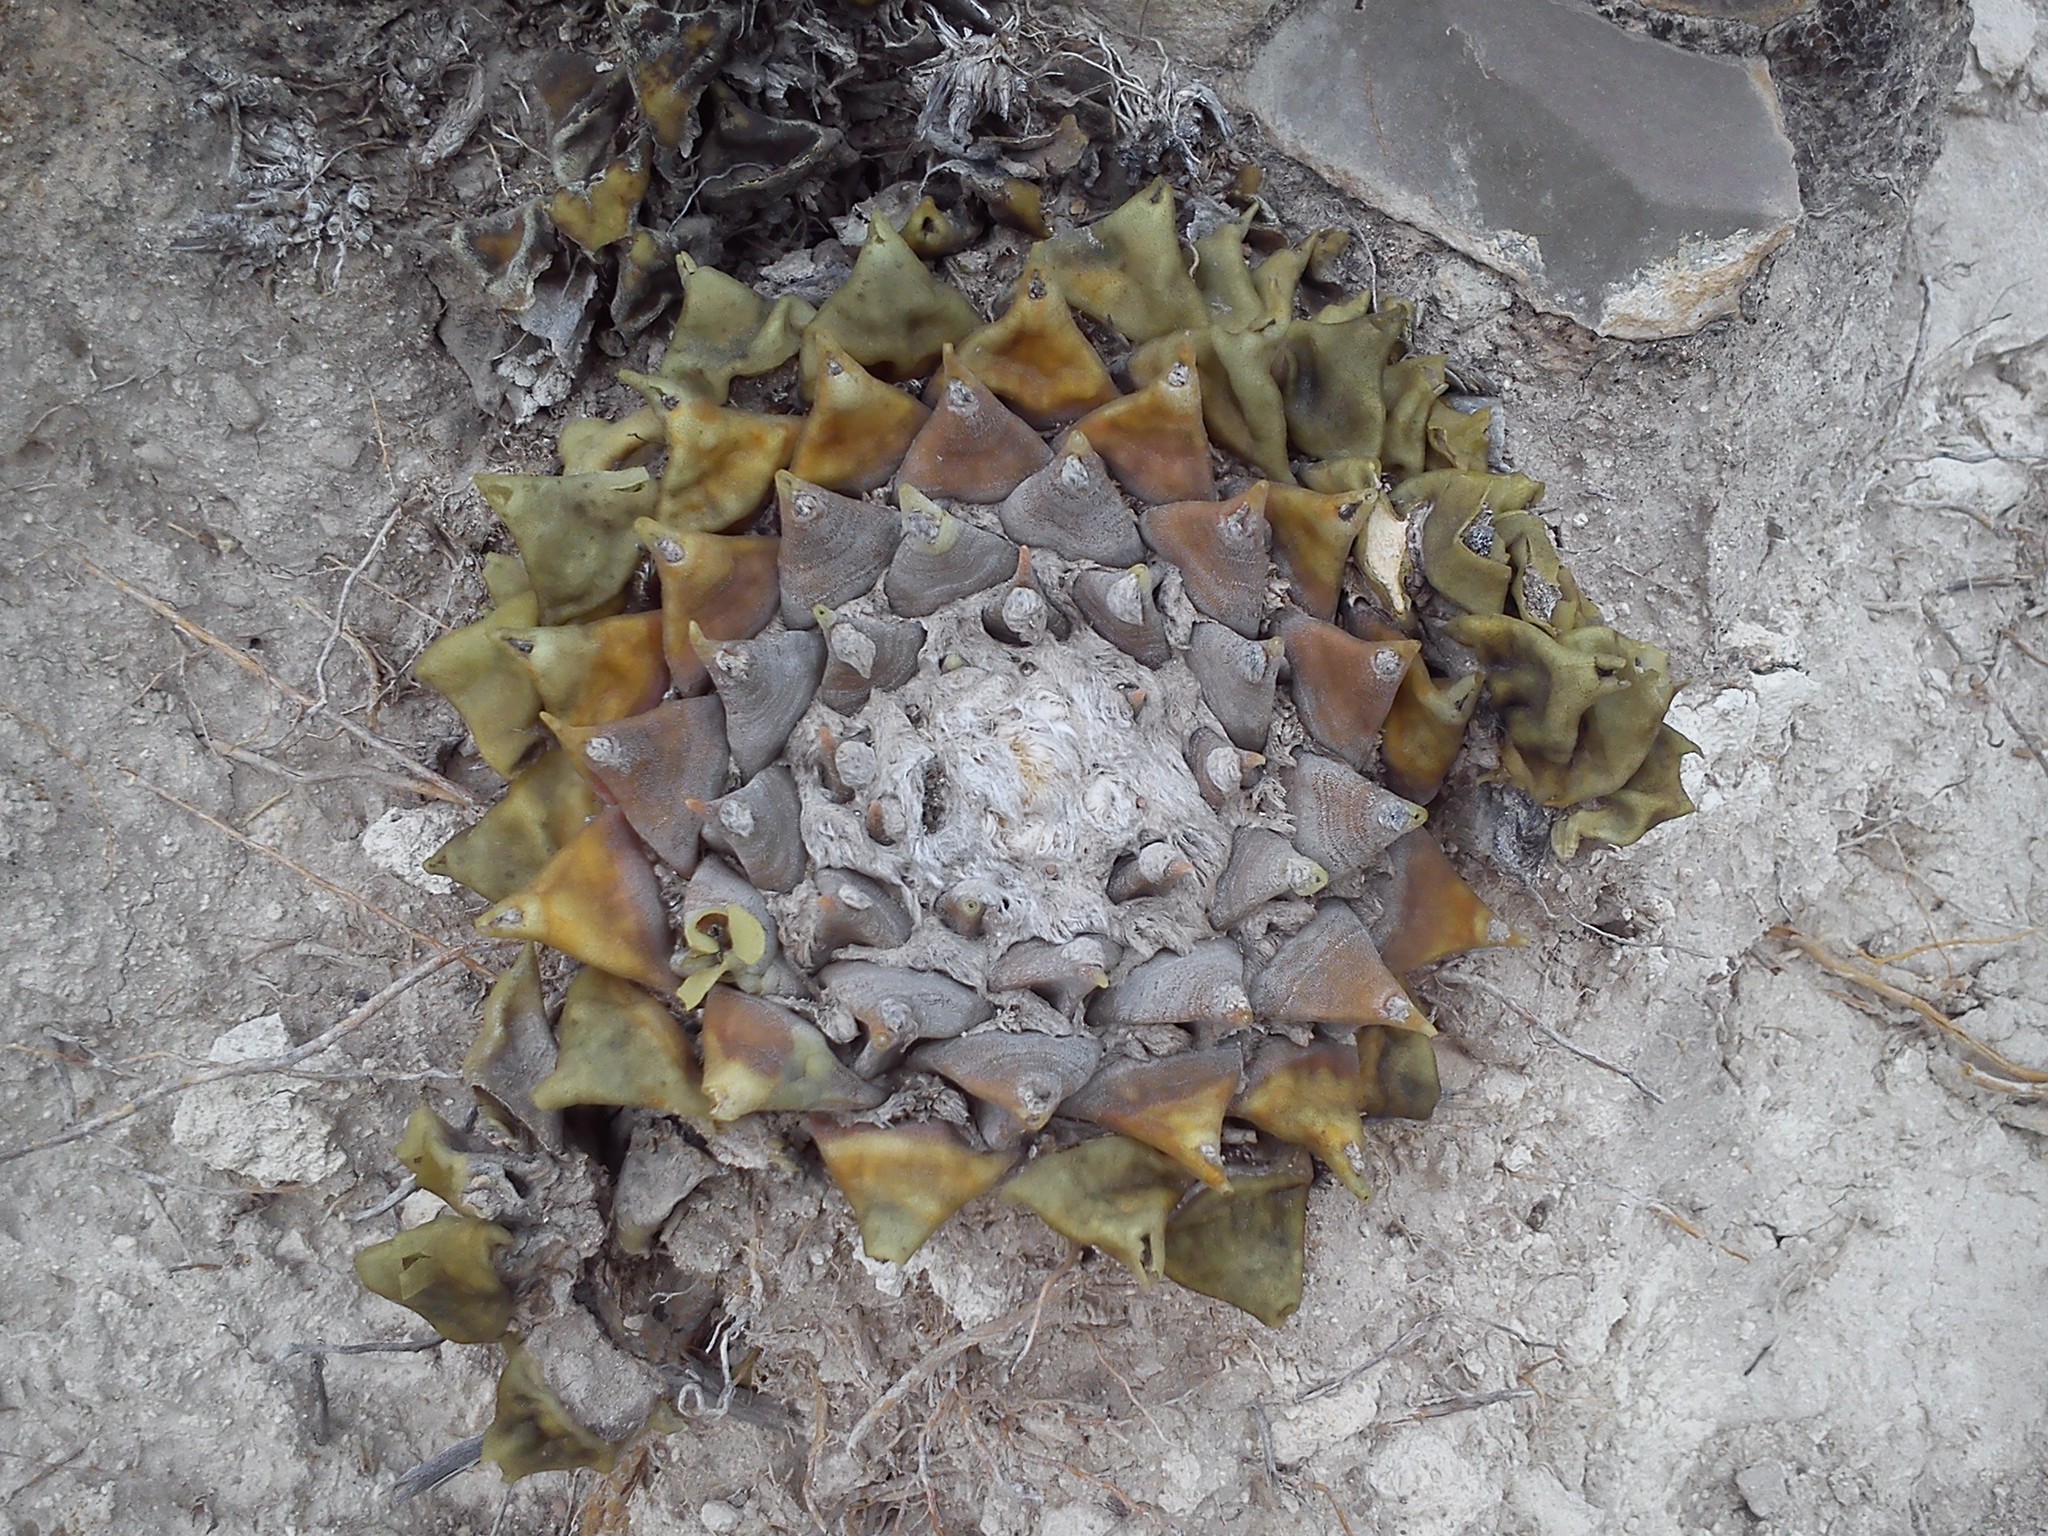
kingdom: Plantae
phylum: Tracheophyta
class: Magnoliopsida
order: Caryophyllales
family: Cactaceae
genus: Ariocarpus
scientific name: Ariocarpus retusus
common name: Seven stars
